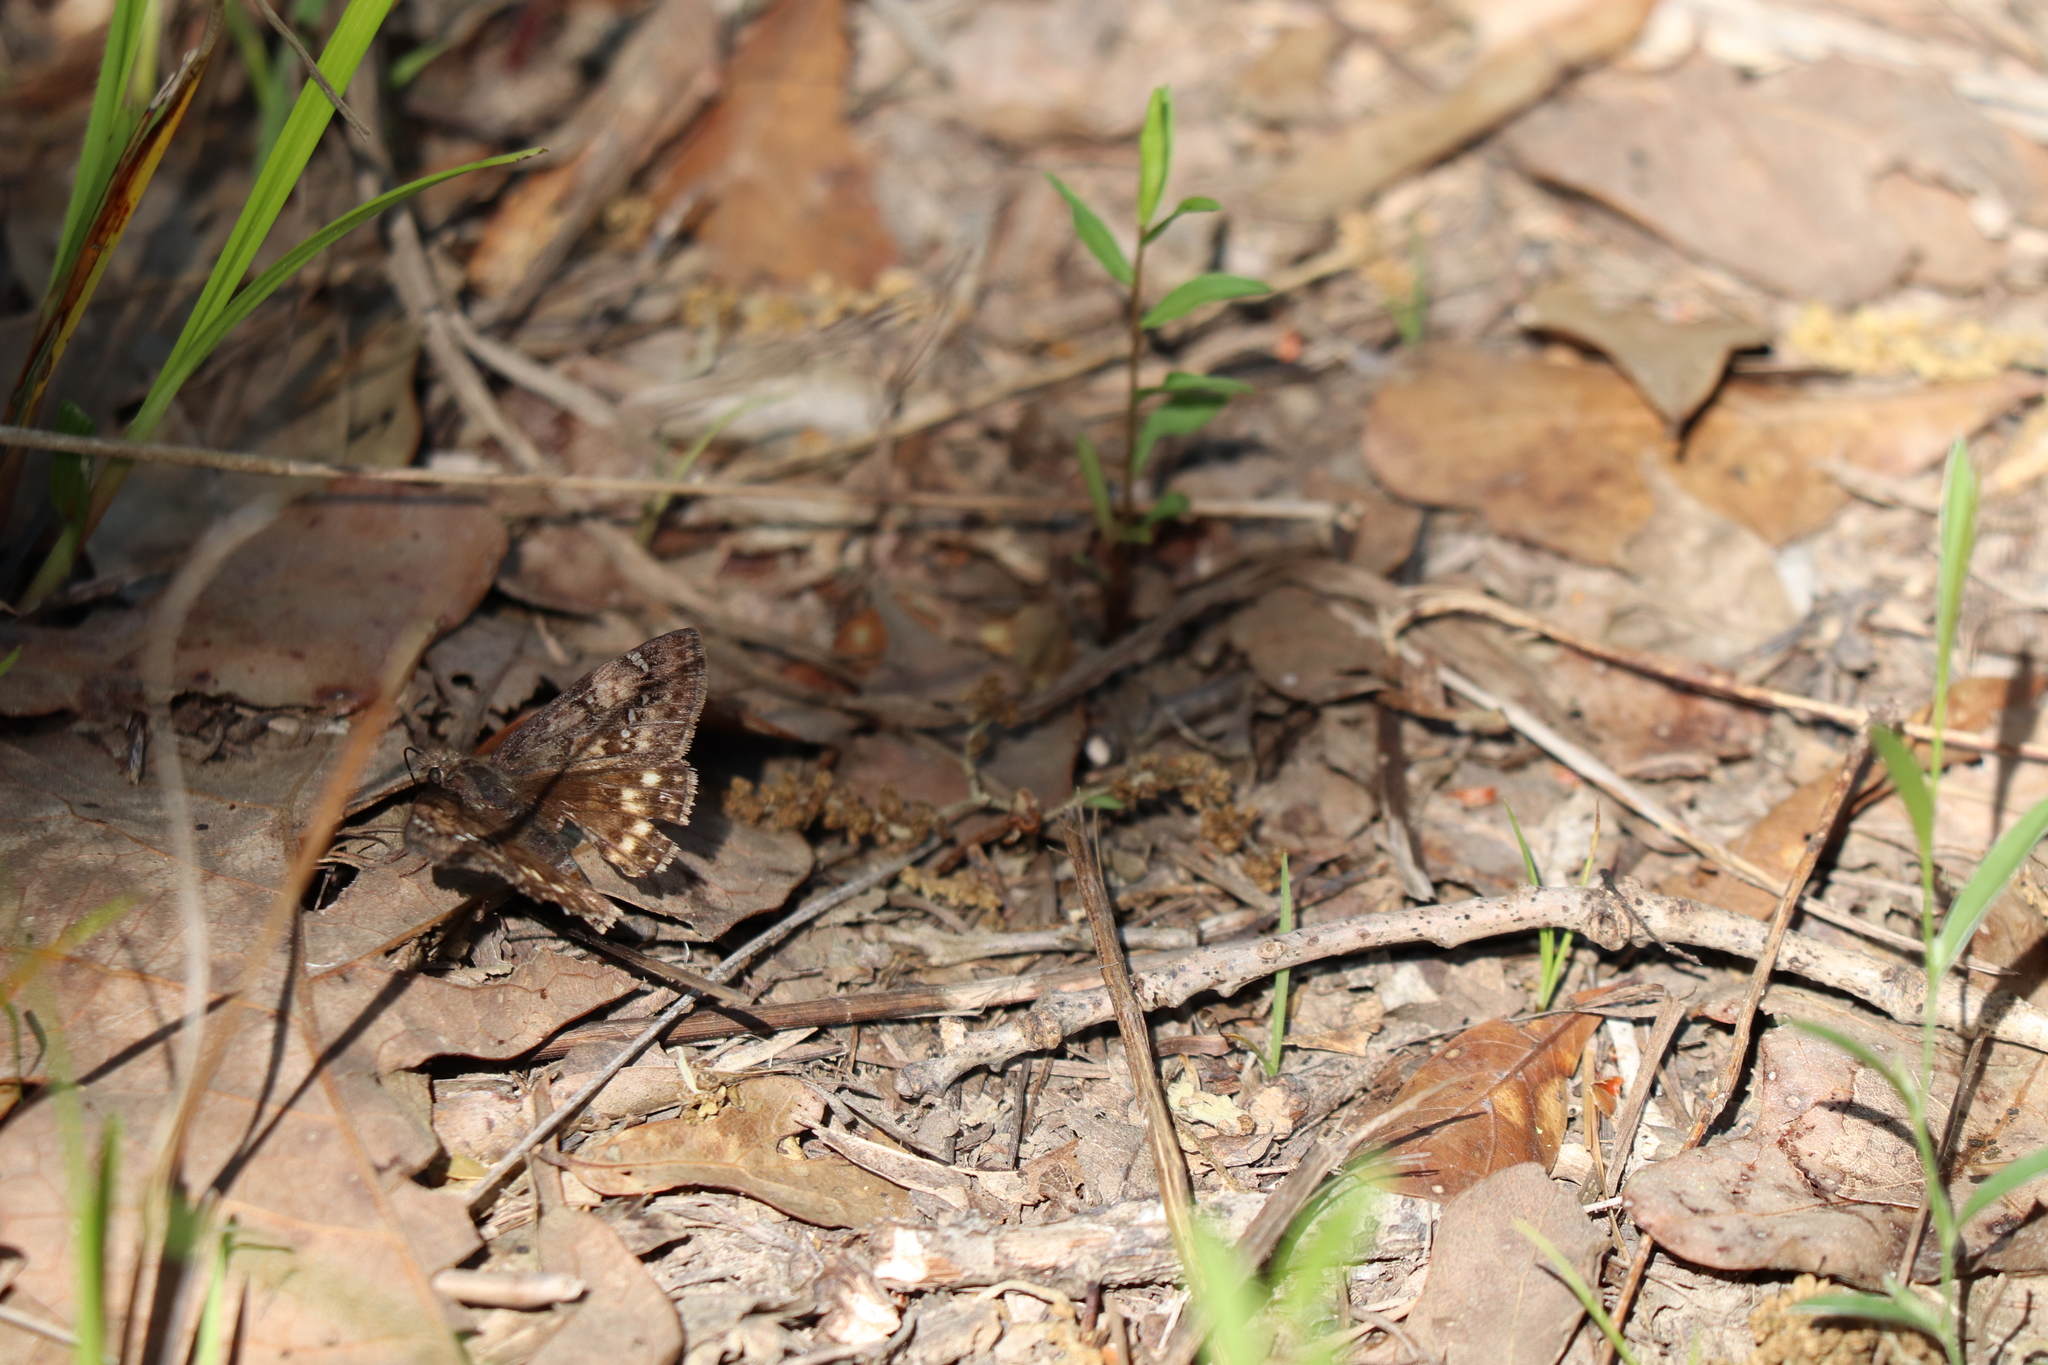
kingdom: Animalia
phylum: Arthropoda
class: Insecta
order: Lepidoptera
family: Hesperiidae
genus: Erynnis
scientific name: Erynnis juvenalis
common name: Juvenal's duskywing
